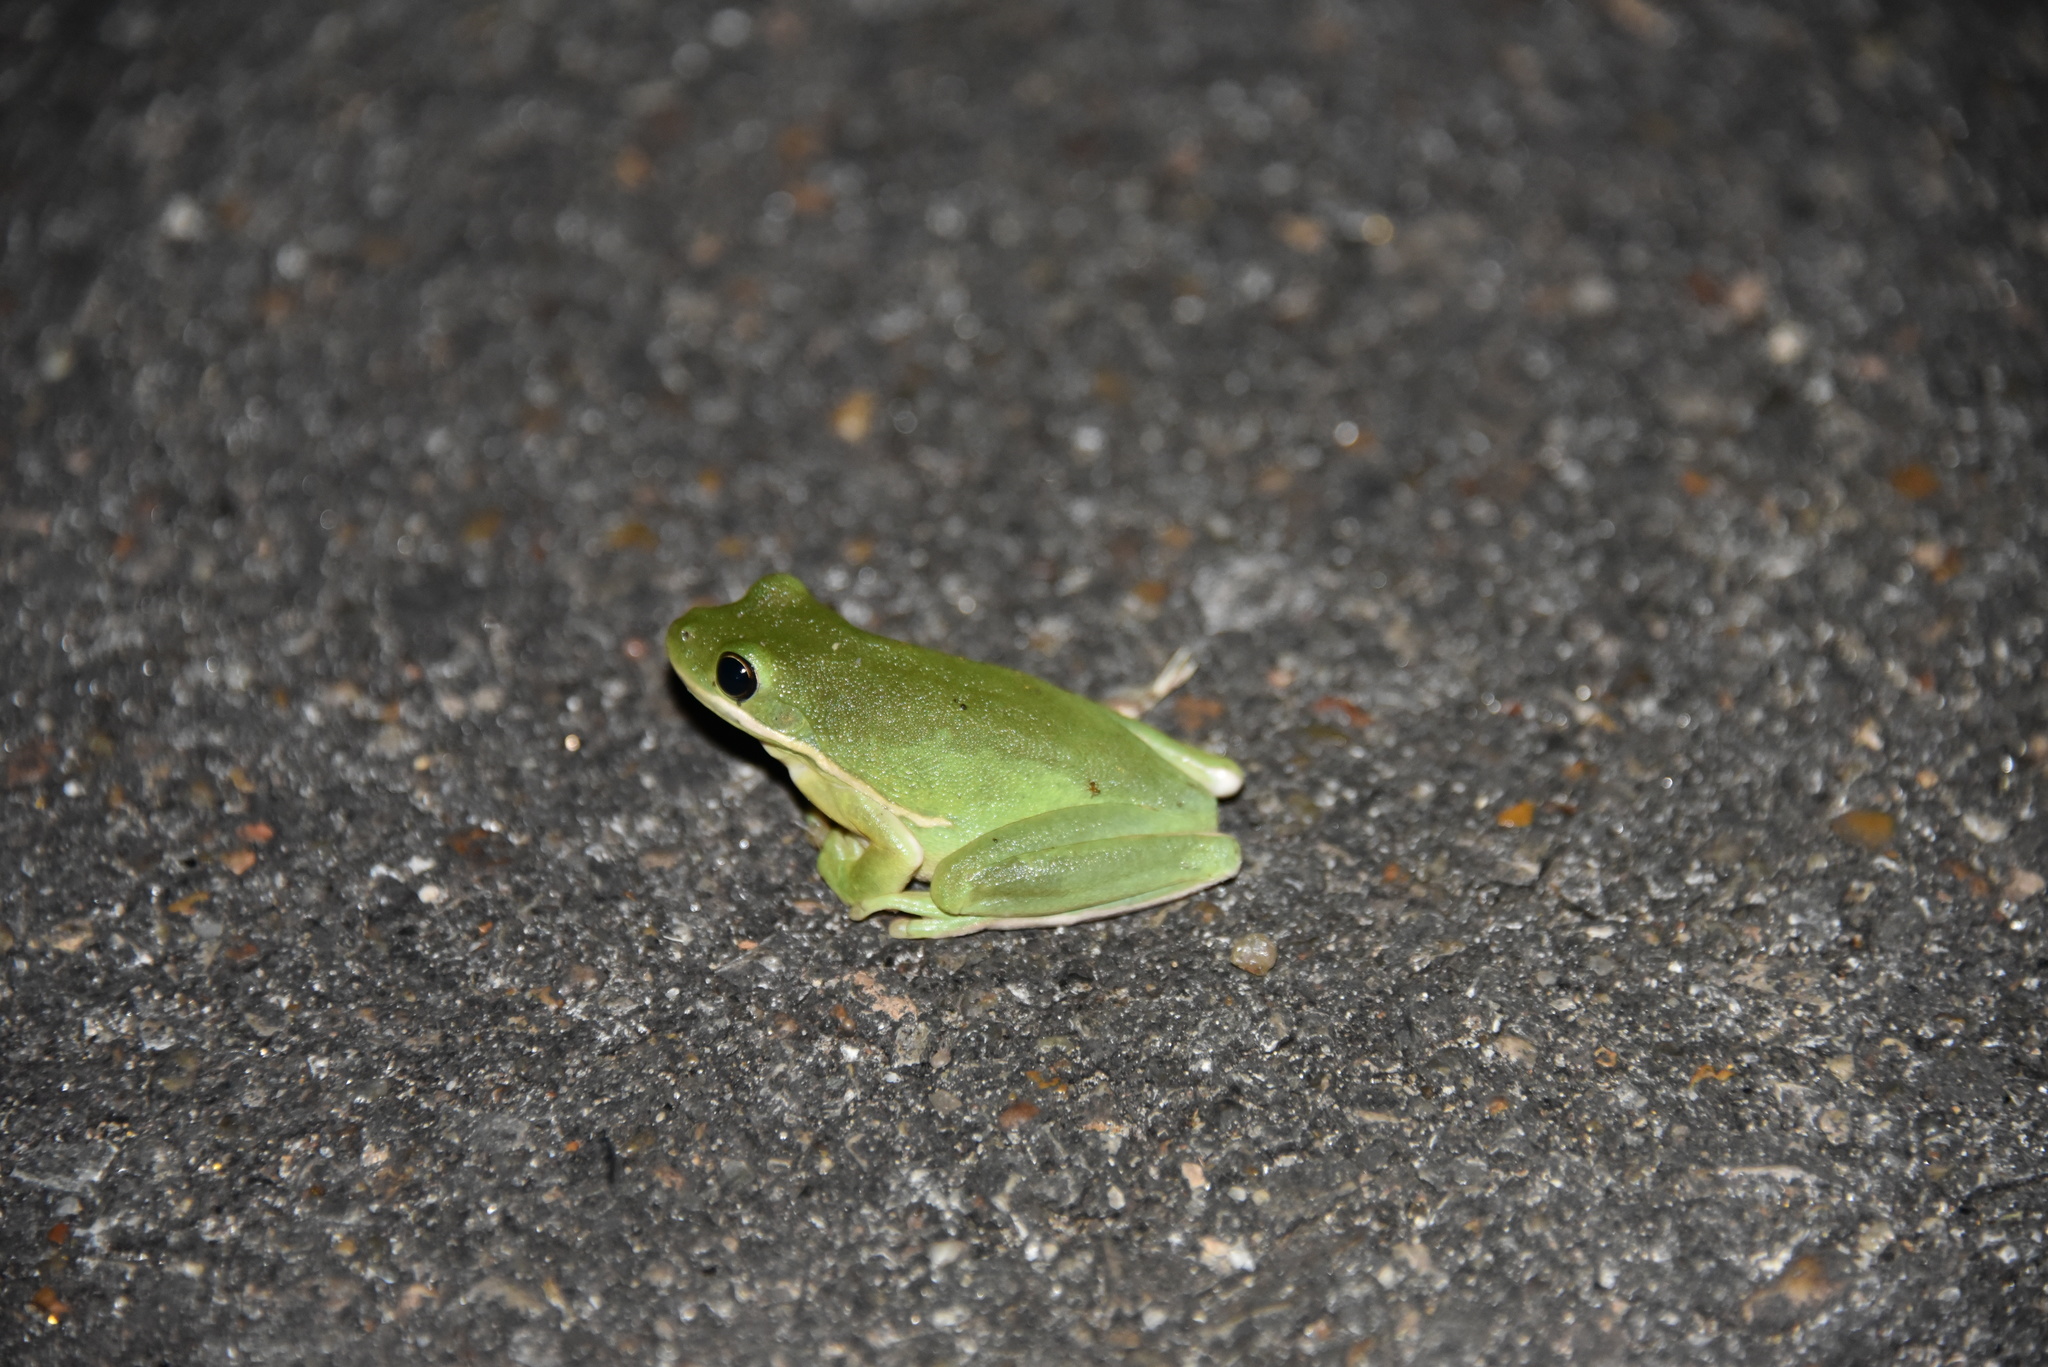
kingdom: Animalia
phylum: Chordata
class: Amphibia
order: Anura
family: Hylidae
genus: Dryophytes
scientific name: Dryophytes cinereus
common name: Green treefrog
